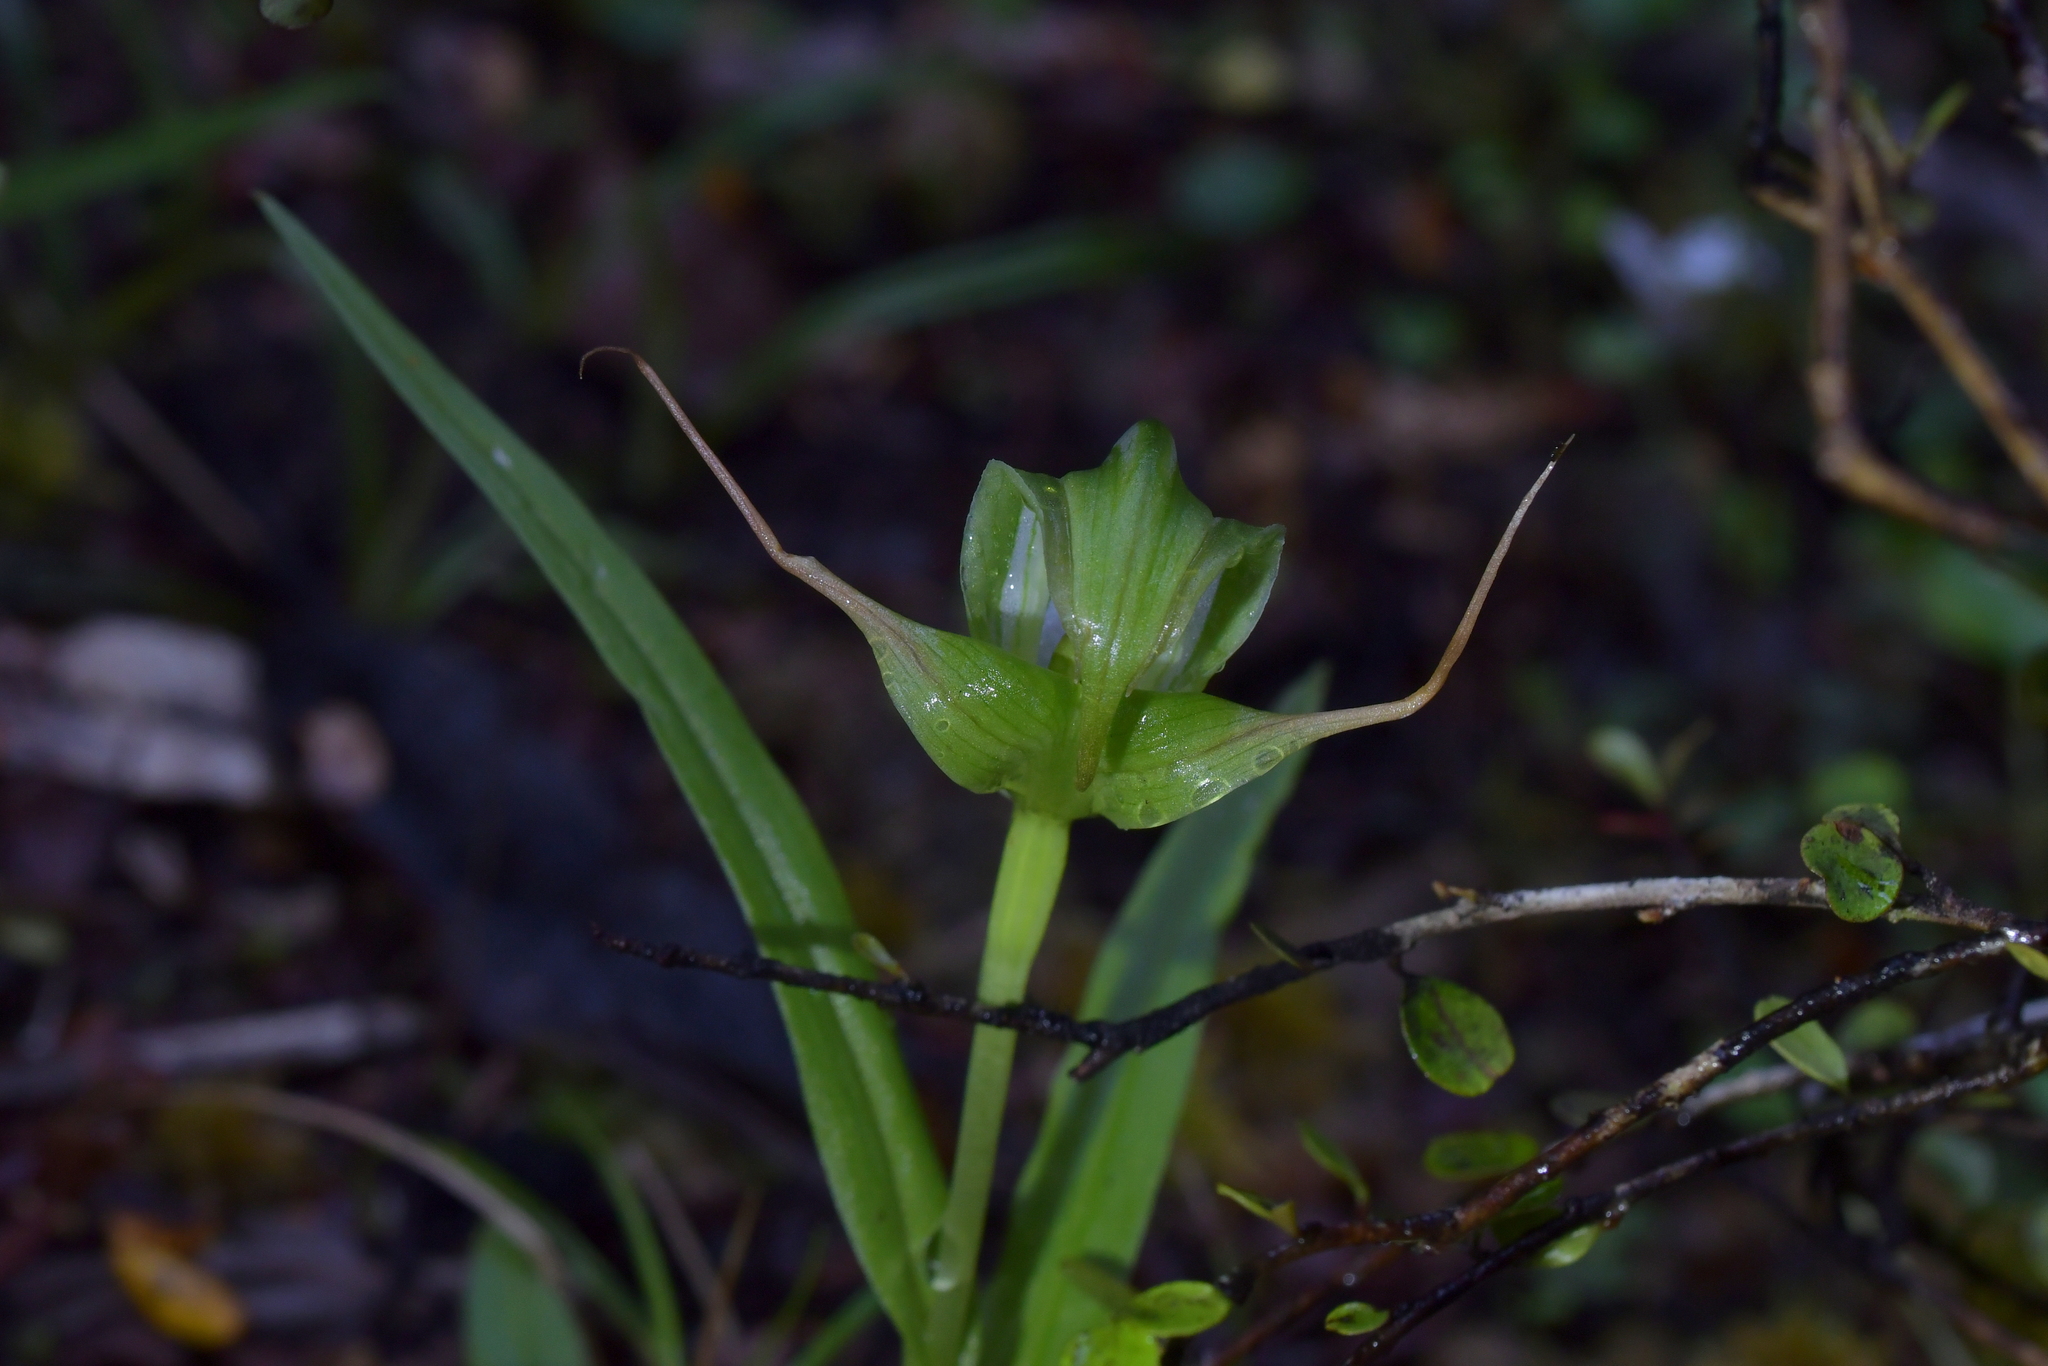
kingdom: Plantae
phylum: Tracheophyta
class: Liliopsida
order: Asparagales
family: Orchidaceae
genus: Pterostylis
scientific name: Pterostylis patens
